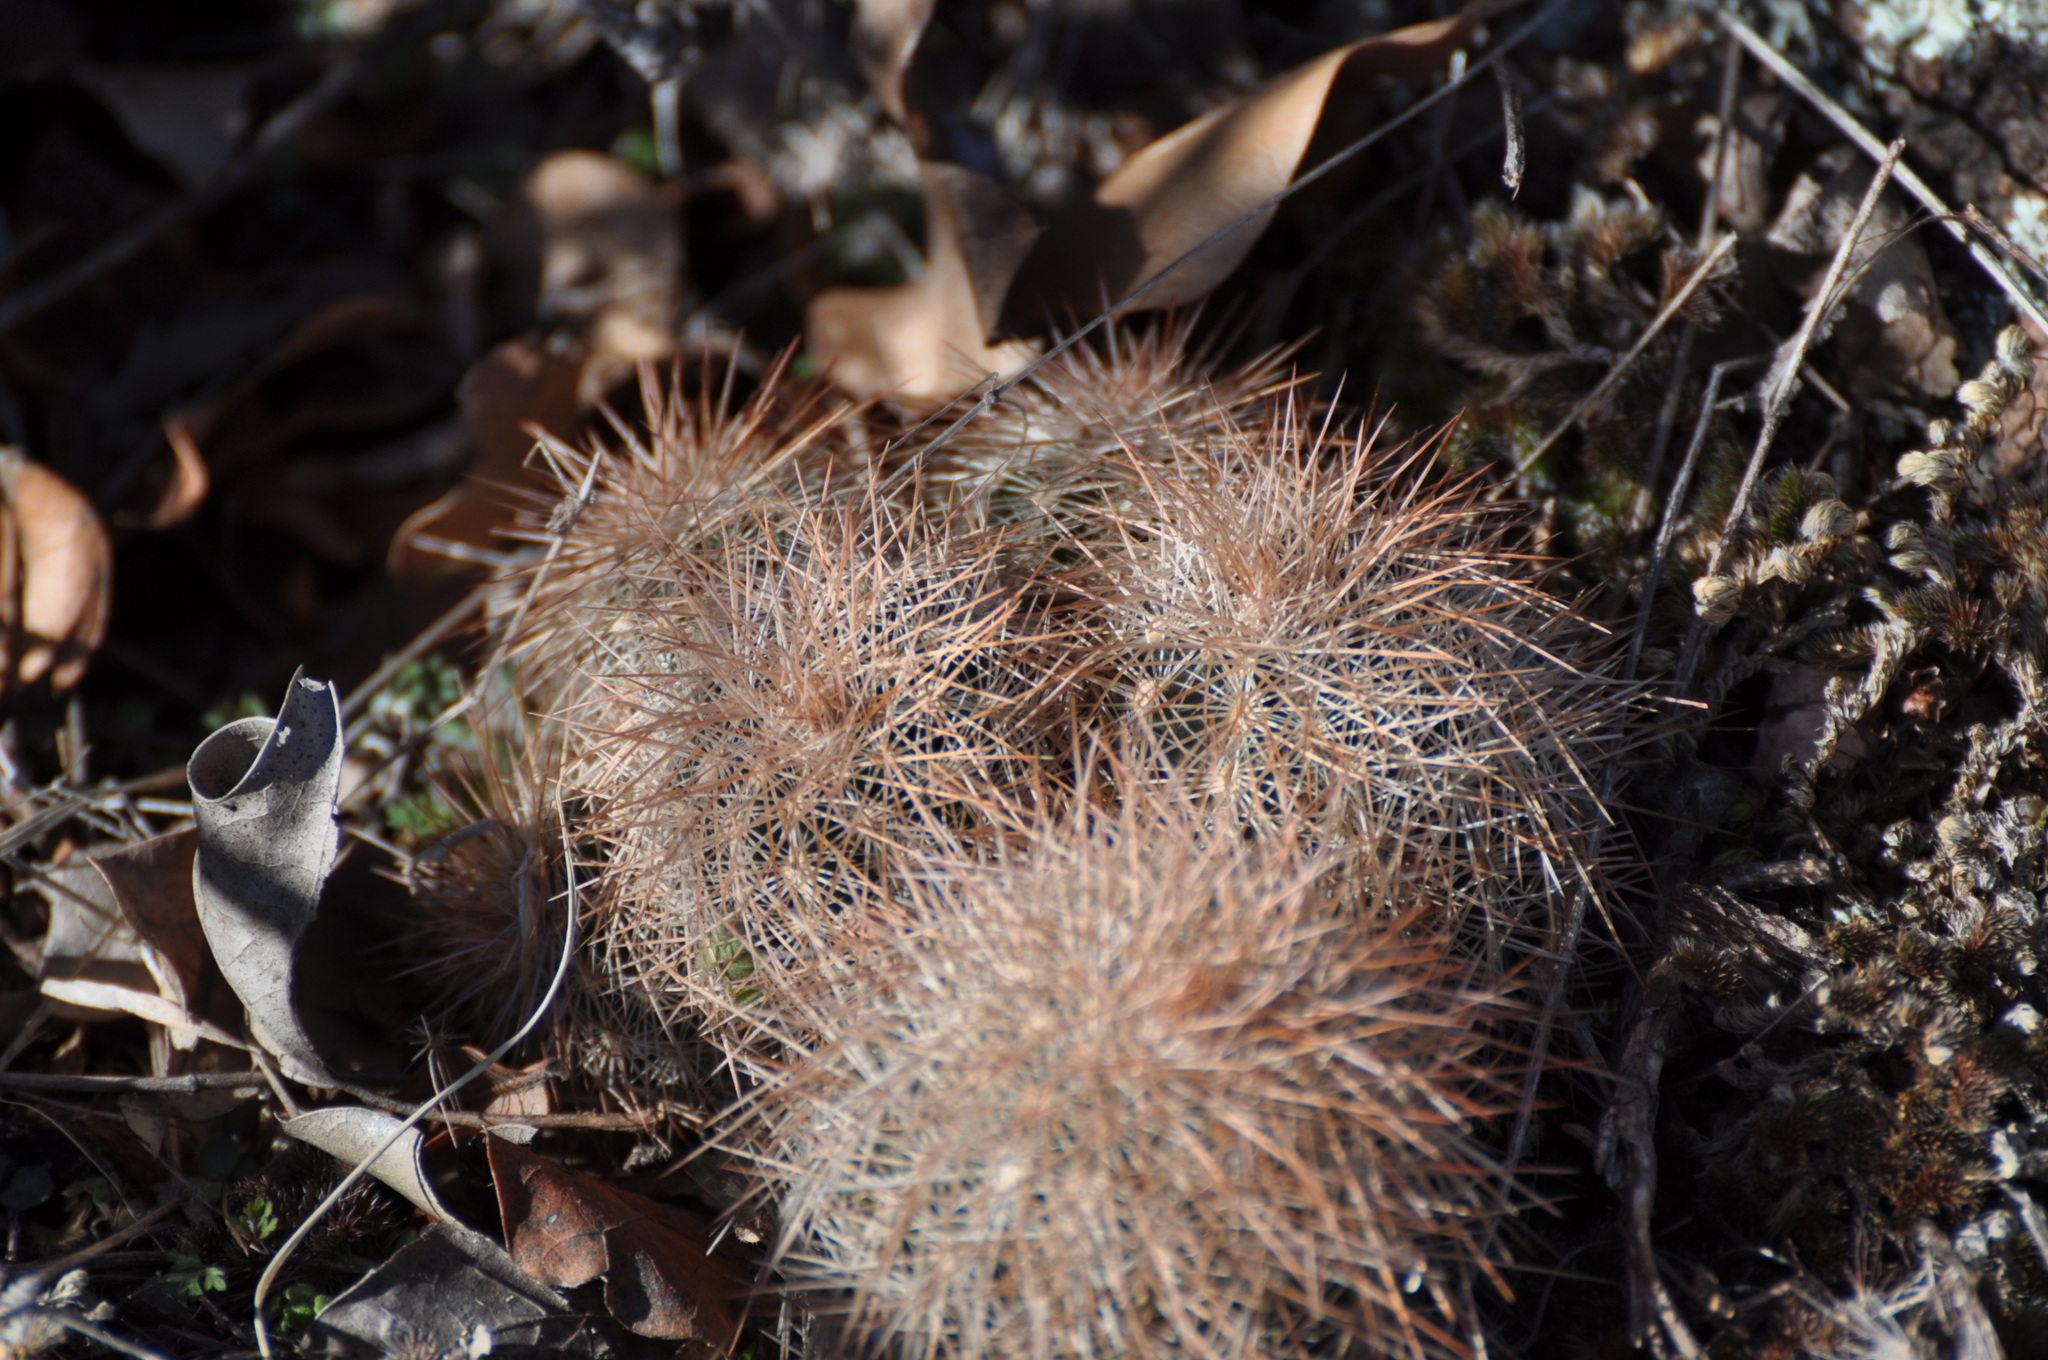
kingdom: Plantae
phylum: Tracheophyta
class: Magnoliopsida
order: Caryophyllales
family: Cactaceae
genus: Echinocereus
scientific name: Echinocereus reichenbachii
